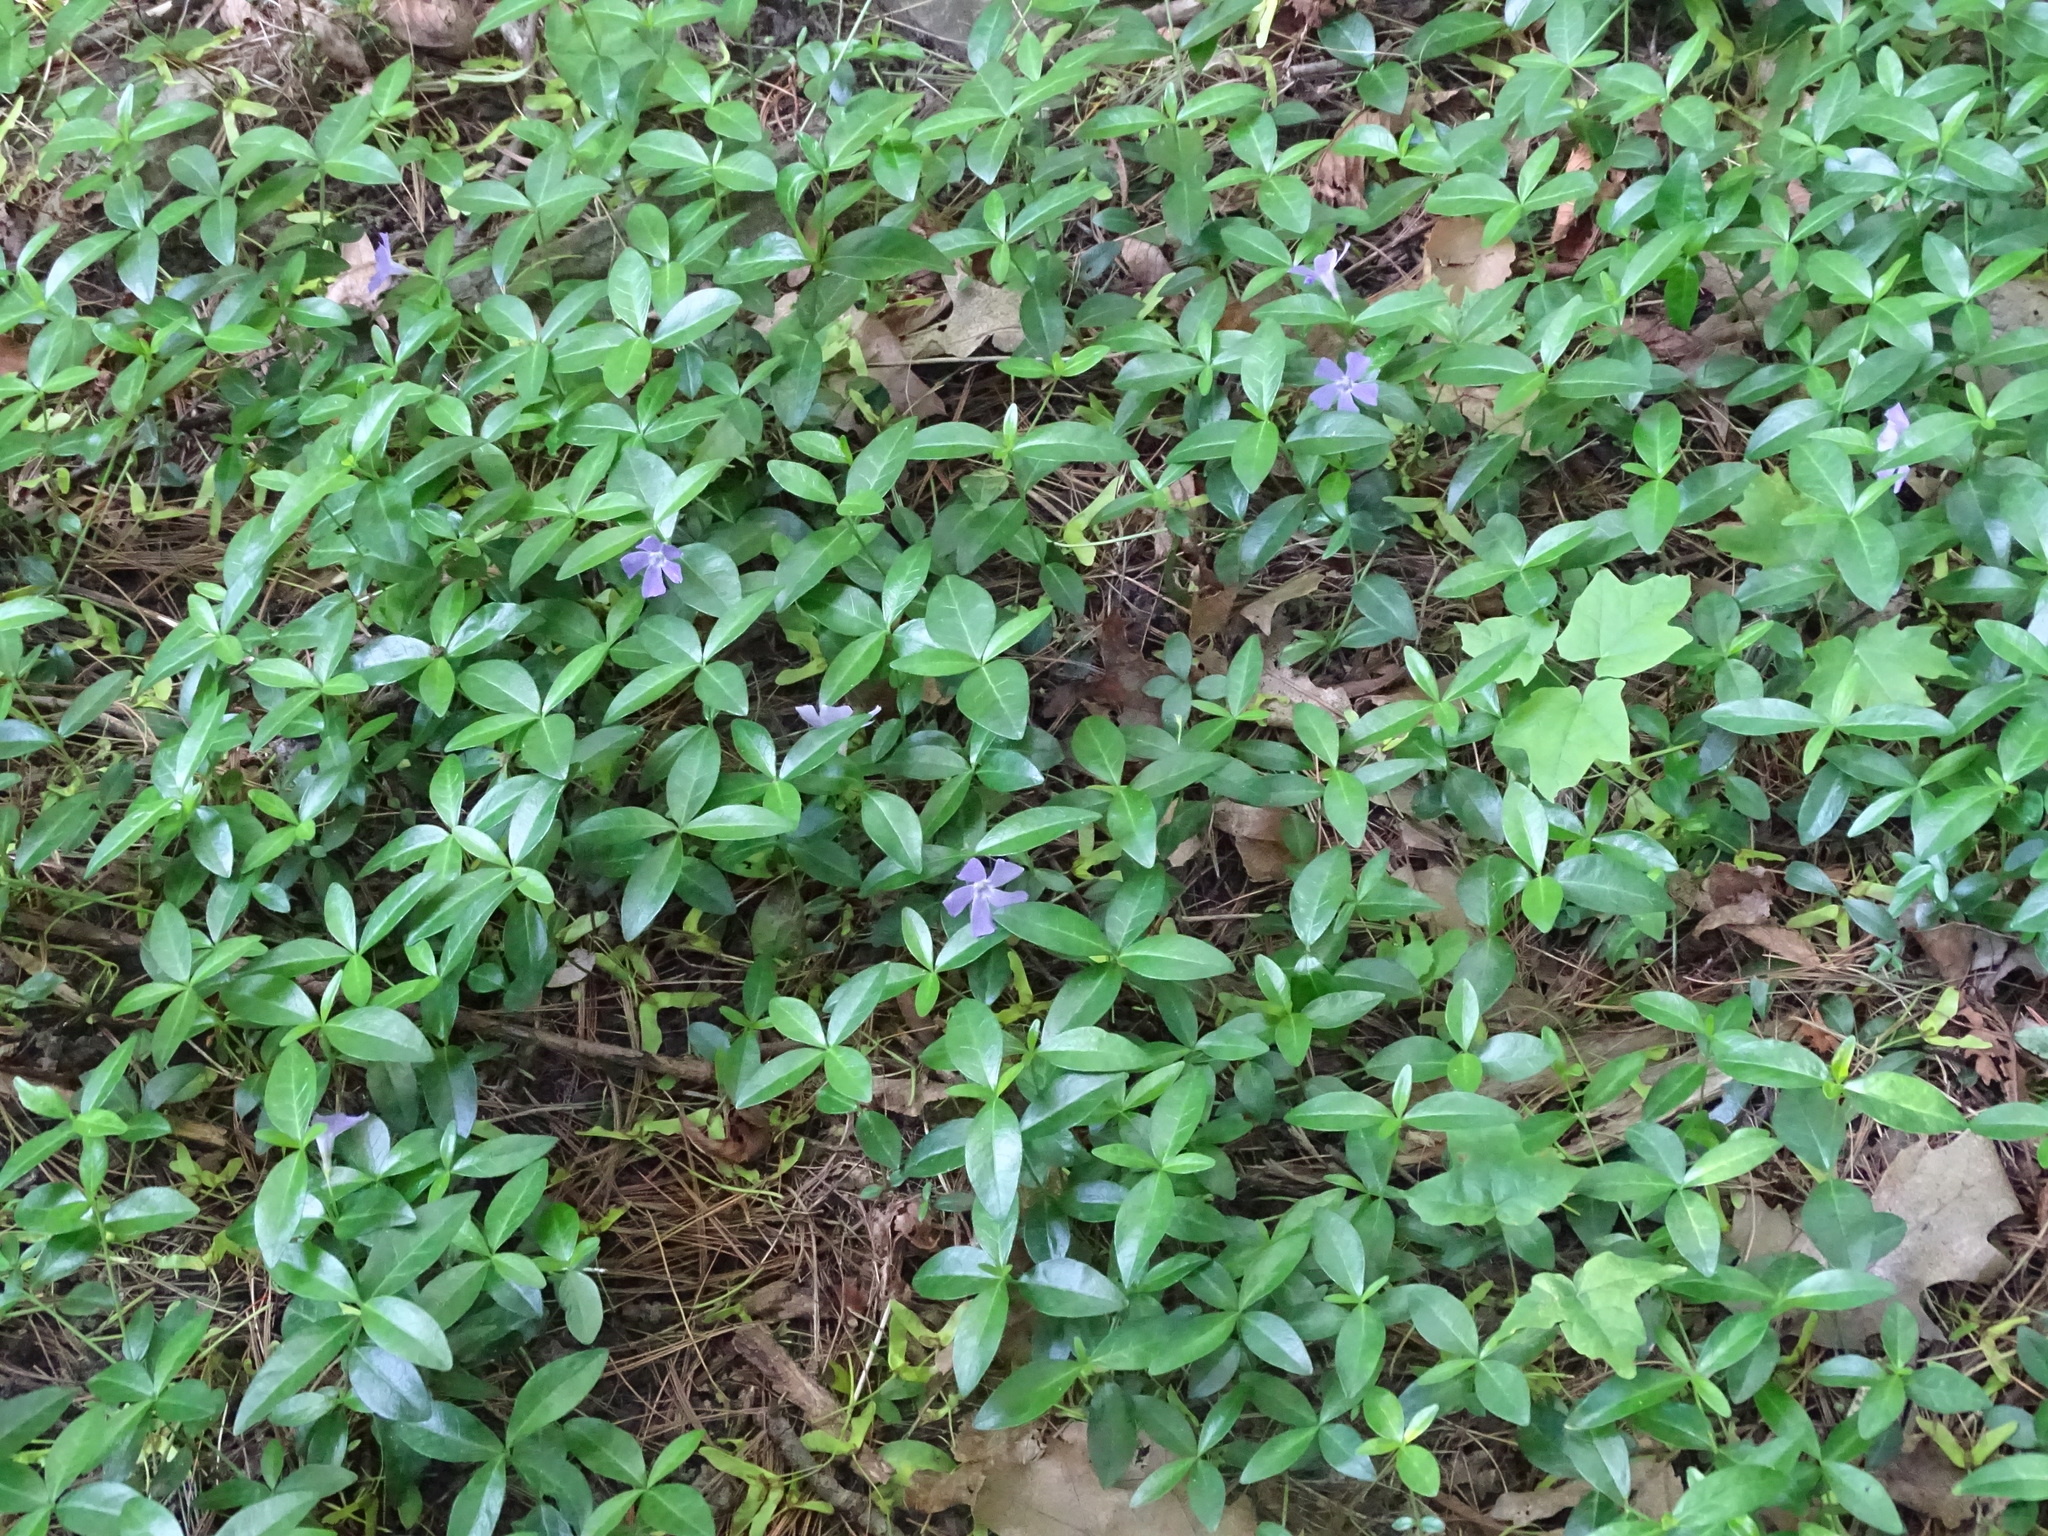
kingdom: Plantae
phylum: Tracheophyta
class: Magnoliopsida
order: Gentianales
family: Apocynaceae
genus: Vinca
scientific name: Vinca minor
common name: Lesser periwinkle
